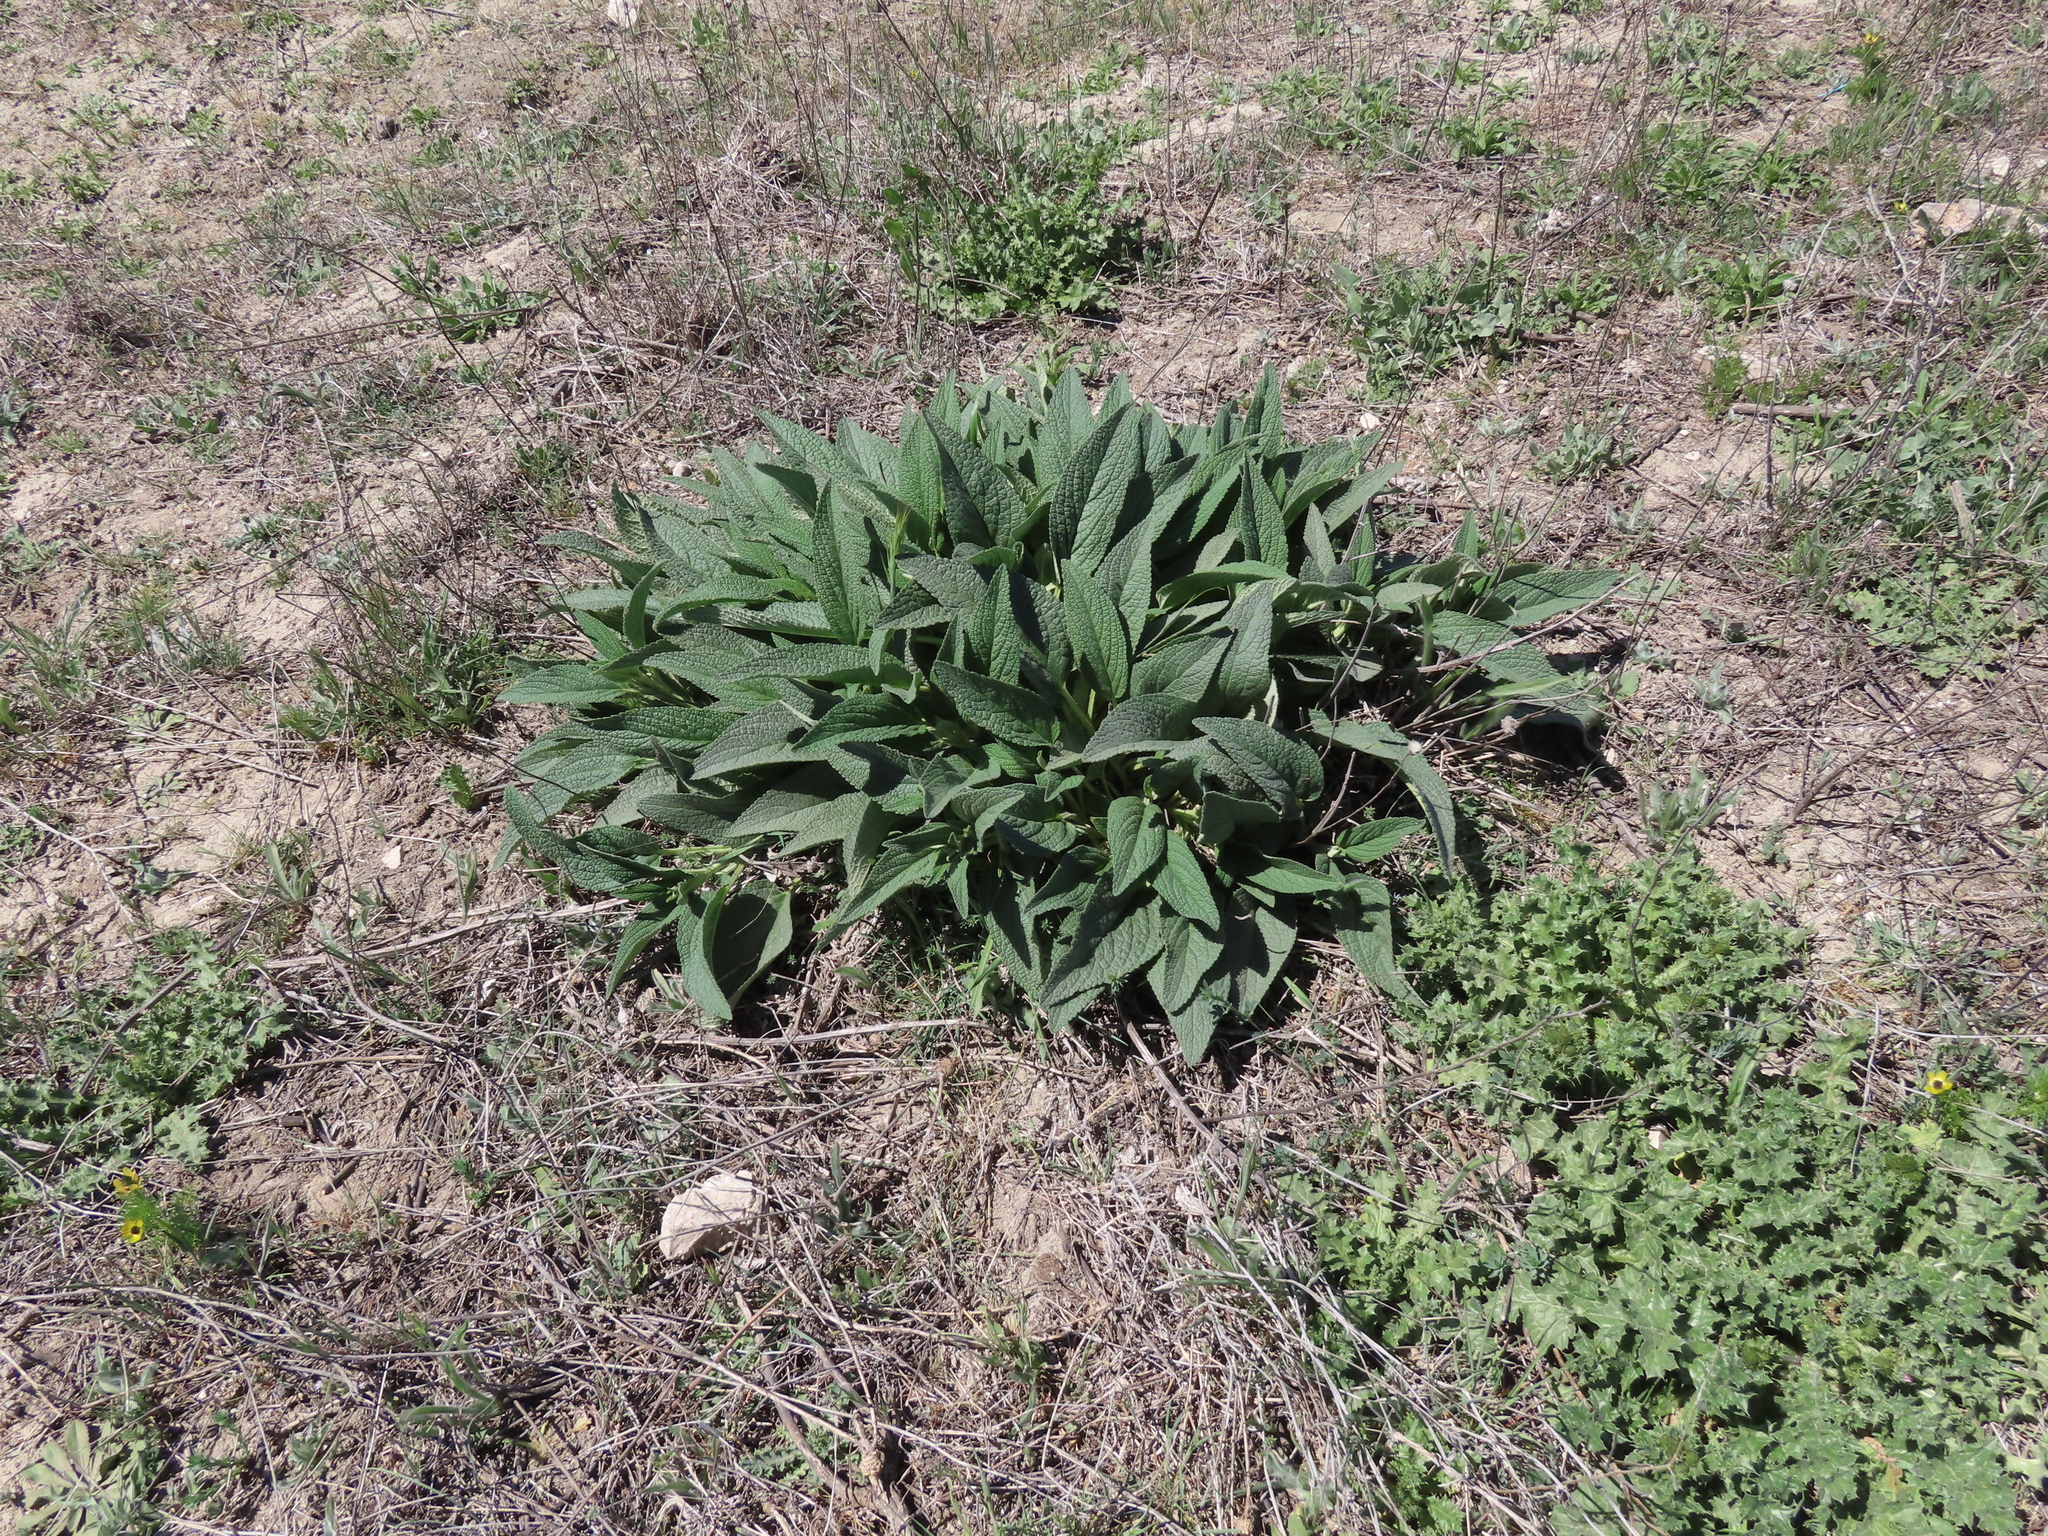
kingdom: Plantae
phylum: Tracheophyta
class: Magnoliopsida
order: Lamiales
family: Lamiaceae
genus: Phlomis
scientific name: Phlomis herba-venti
